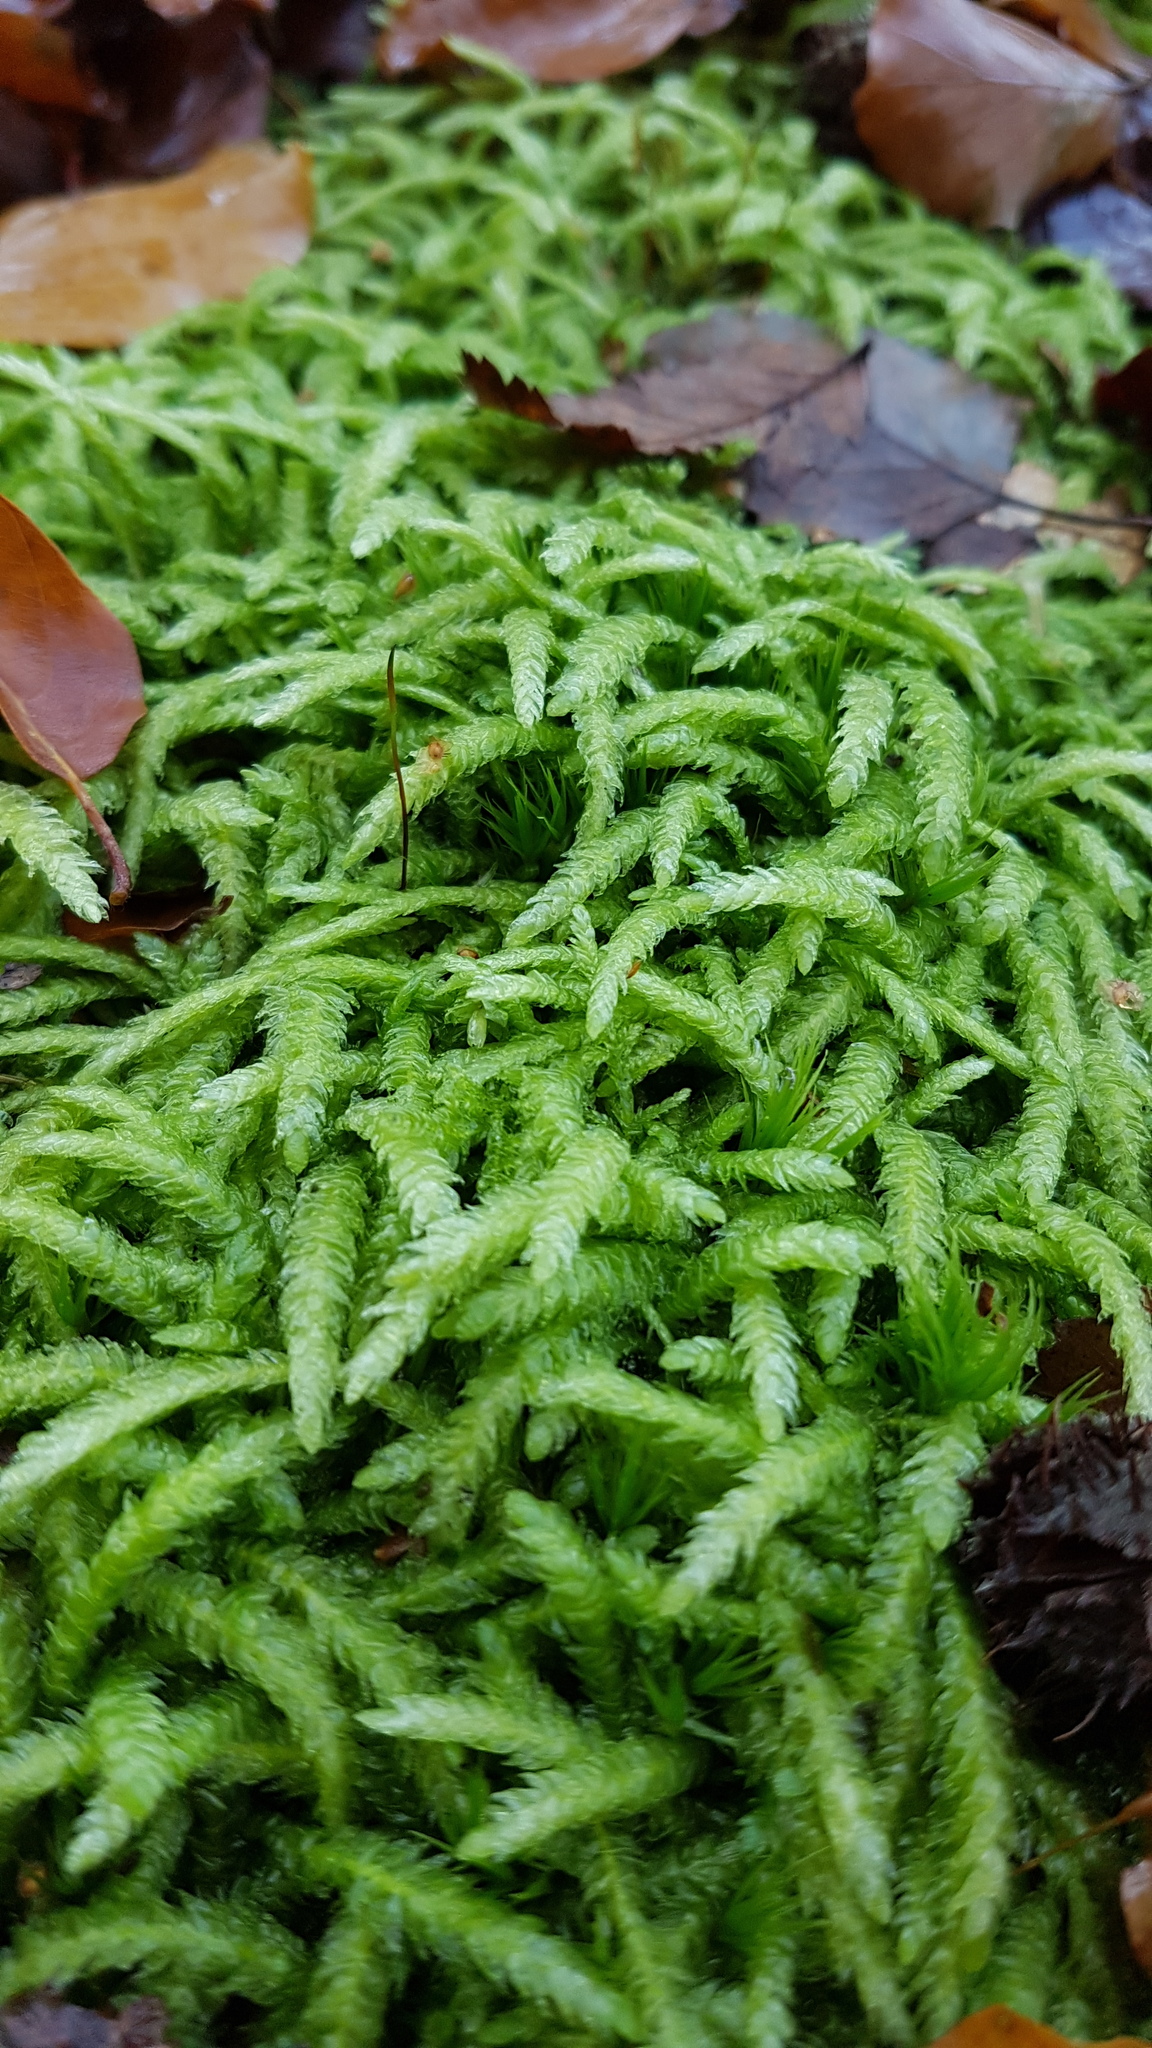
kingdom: Plantae
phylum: Bryophyta
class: Bryopsida
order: Hypnales
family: Plagiotheciaceae
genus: Plagiothecium
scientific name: Plagiothecium undulatum
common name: Waved silk-moss
